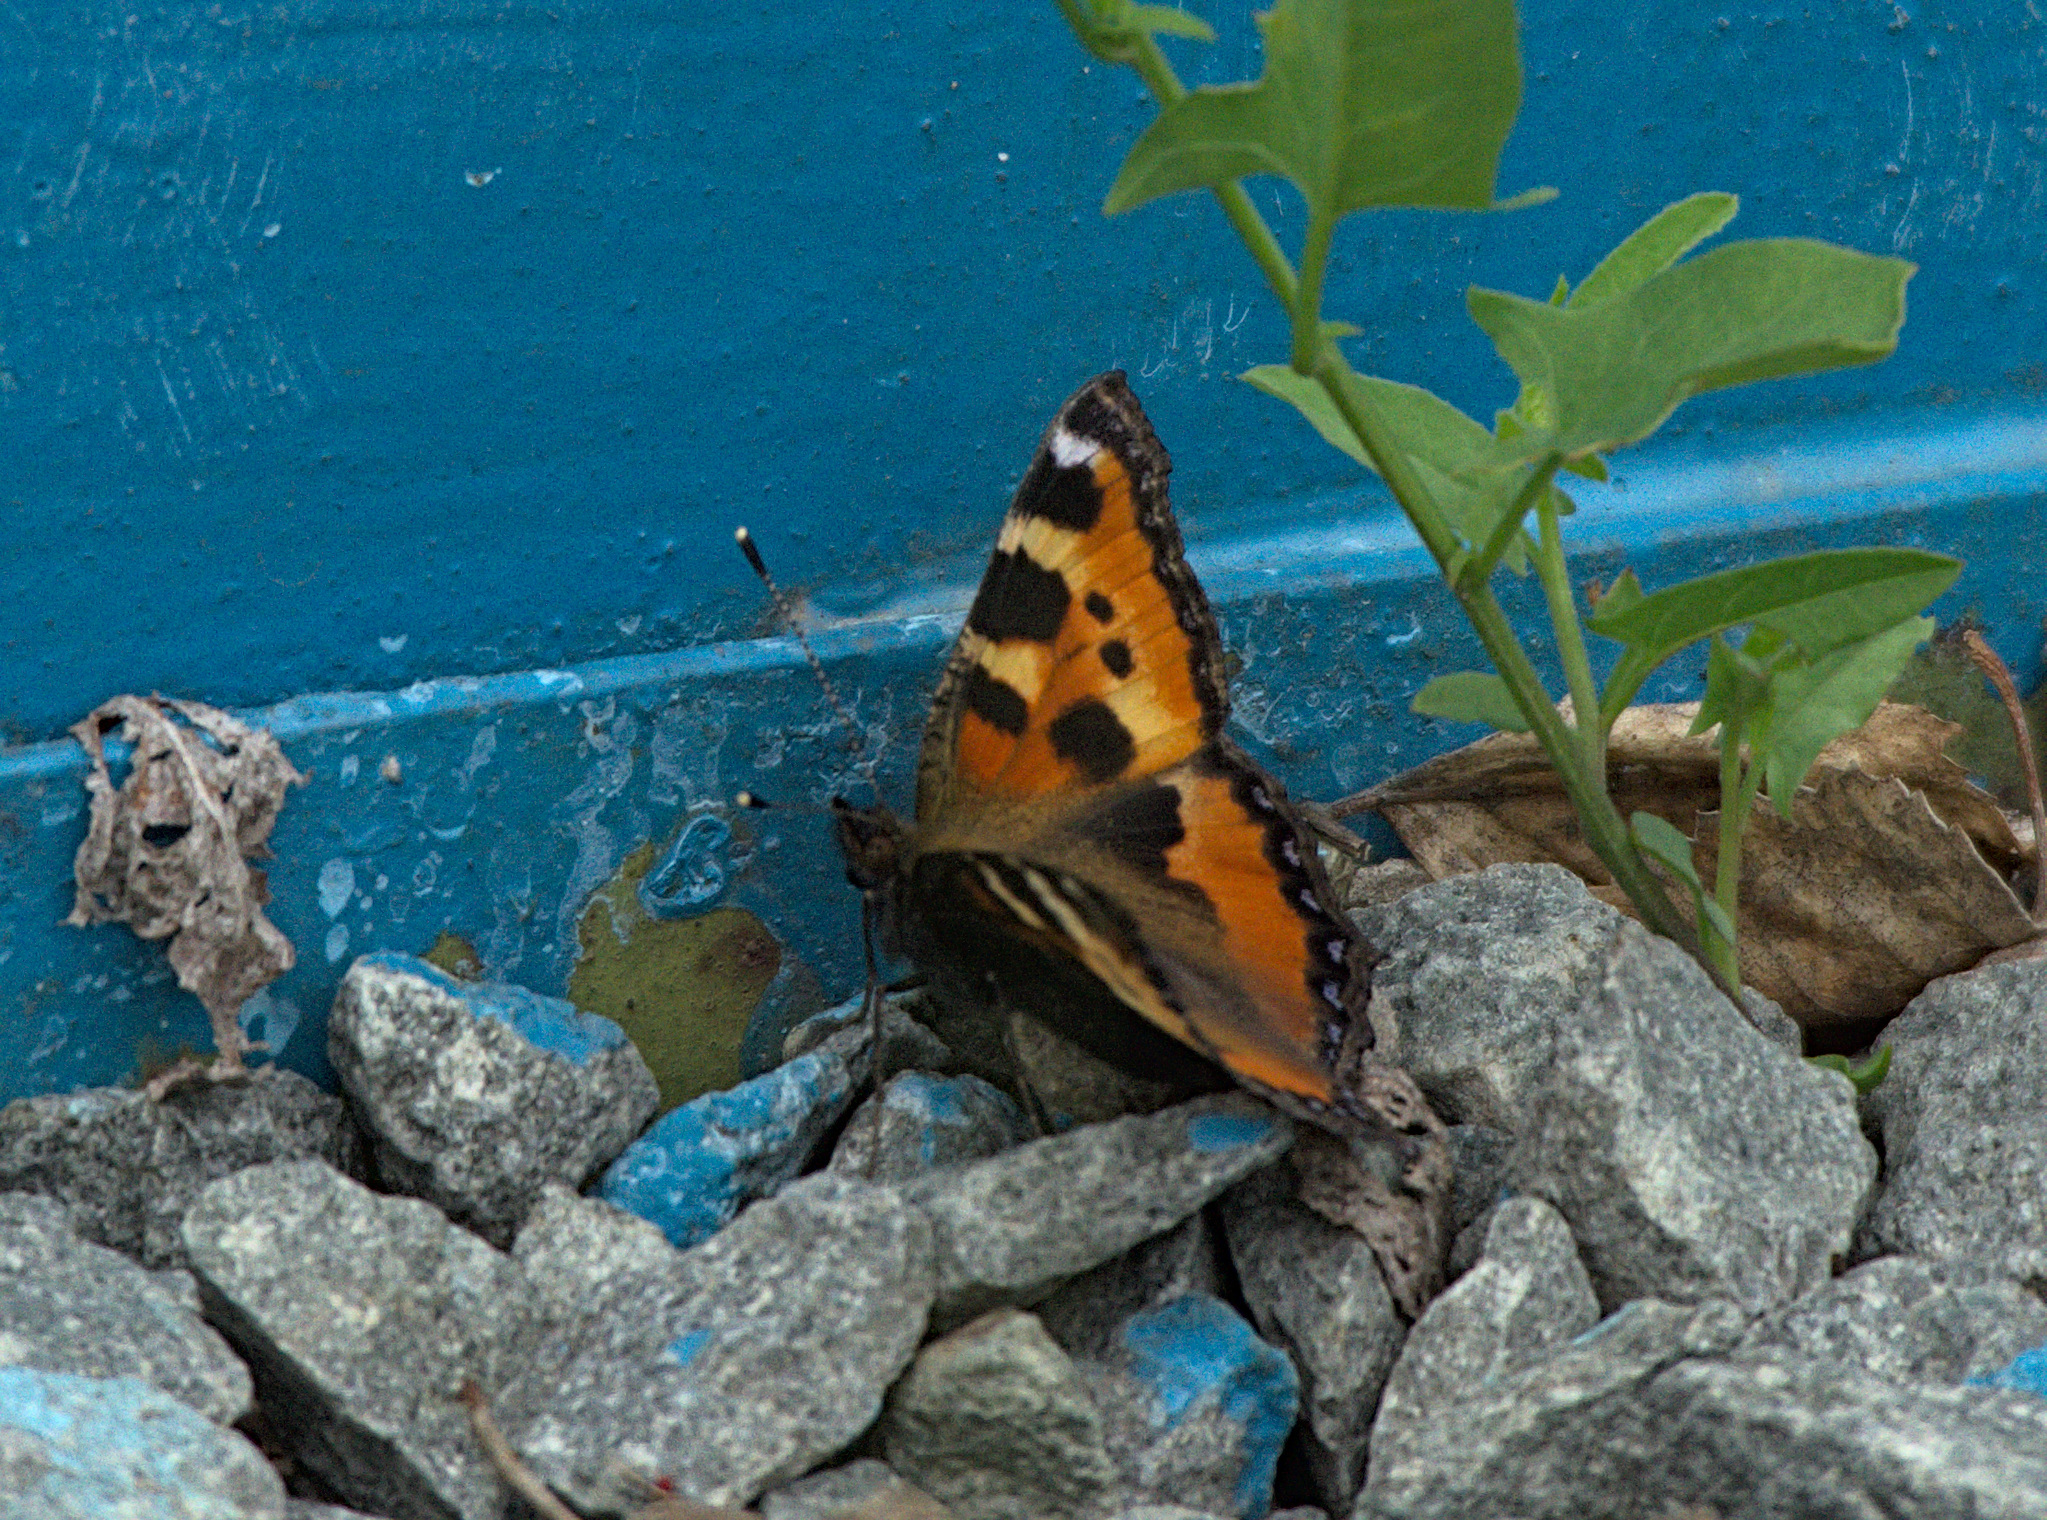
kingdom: Animalia
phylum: Arthropoda
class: Insecta
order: Lepidoptera
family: Nymphalidae
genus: Aglais
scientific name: Aglais urticae
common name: Small tortoiseshell
